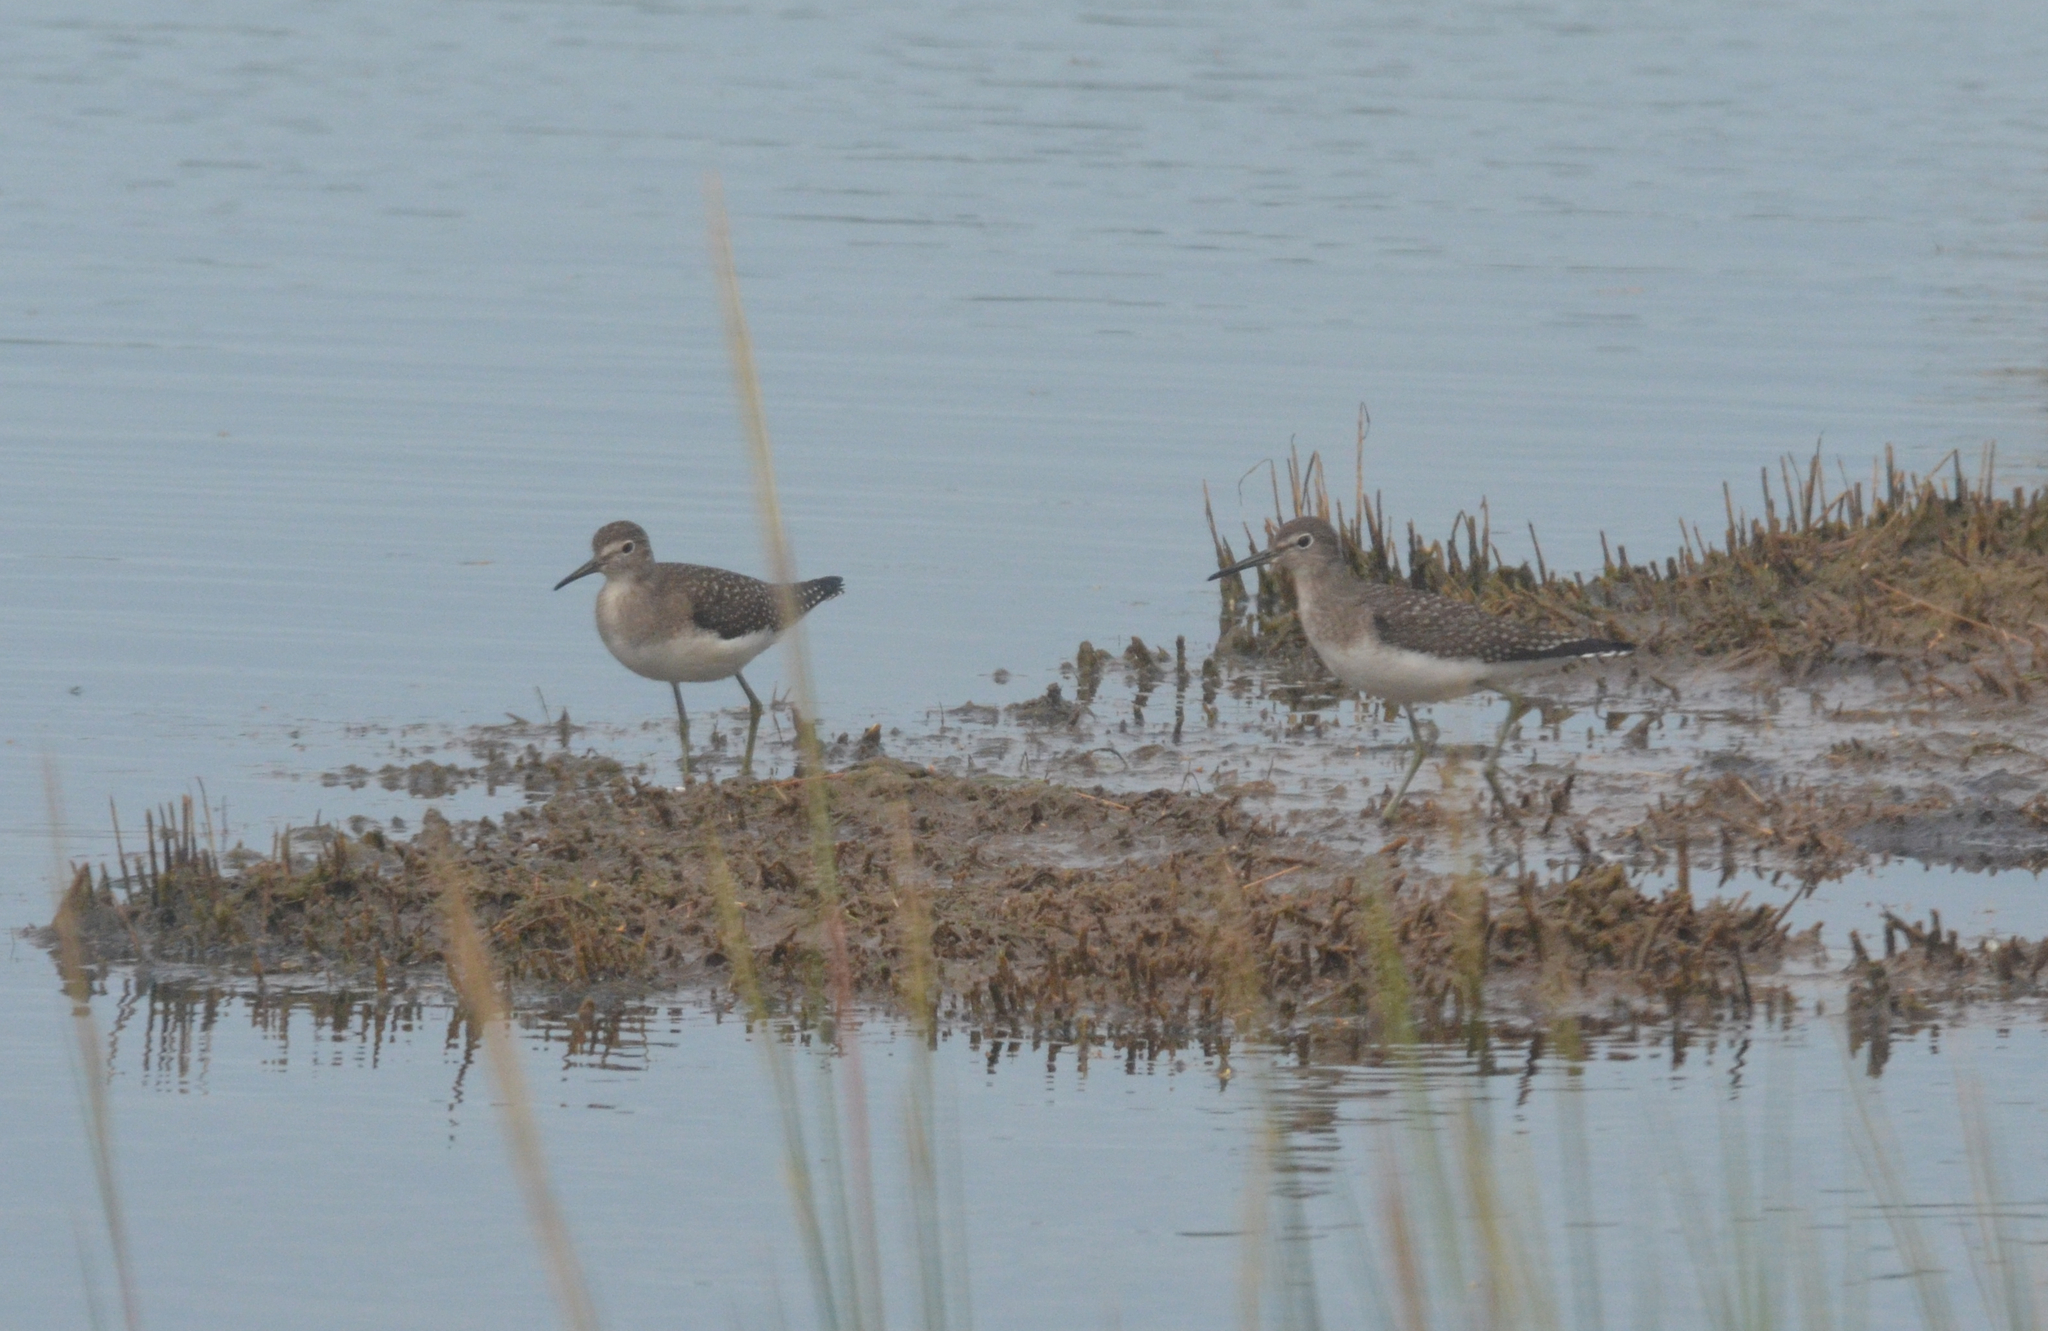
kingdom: Animalia
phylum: Chordata
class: Aves
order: Charadriiformes
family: Scolopacidae
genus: Tringa
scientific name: Tringa solitaria
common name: Solitary sandpiper
